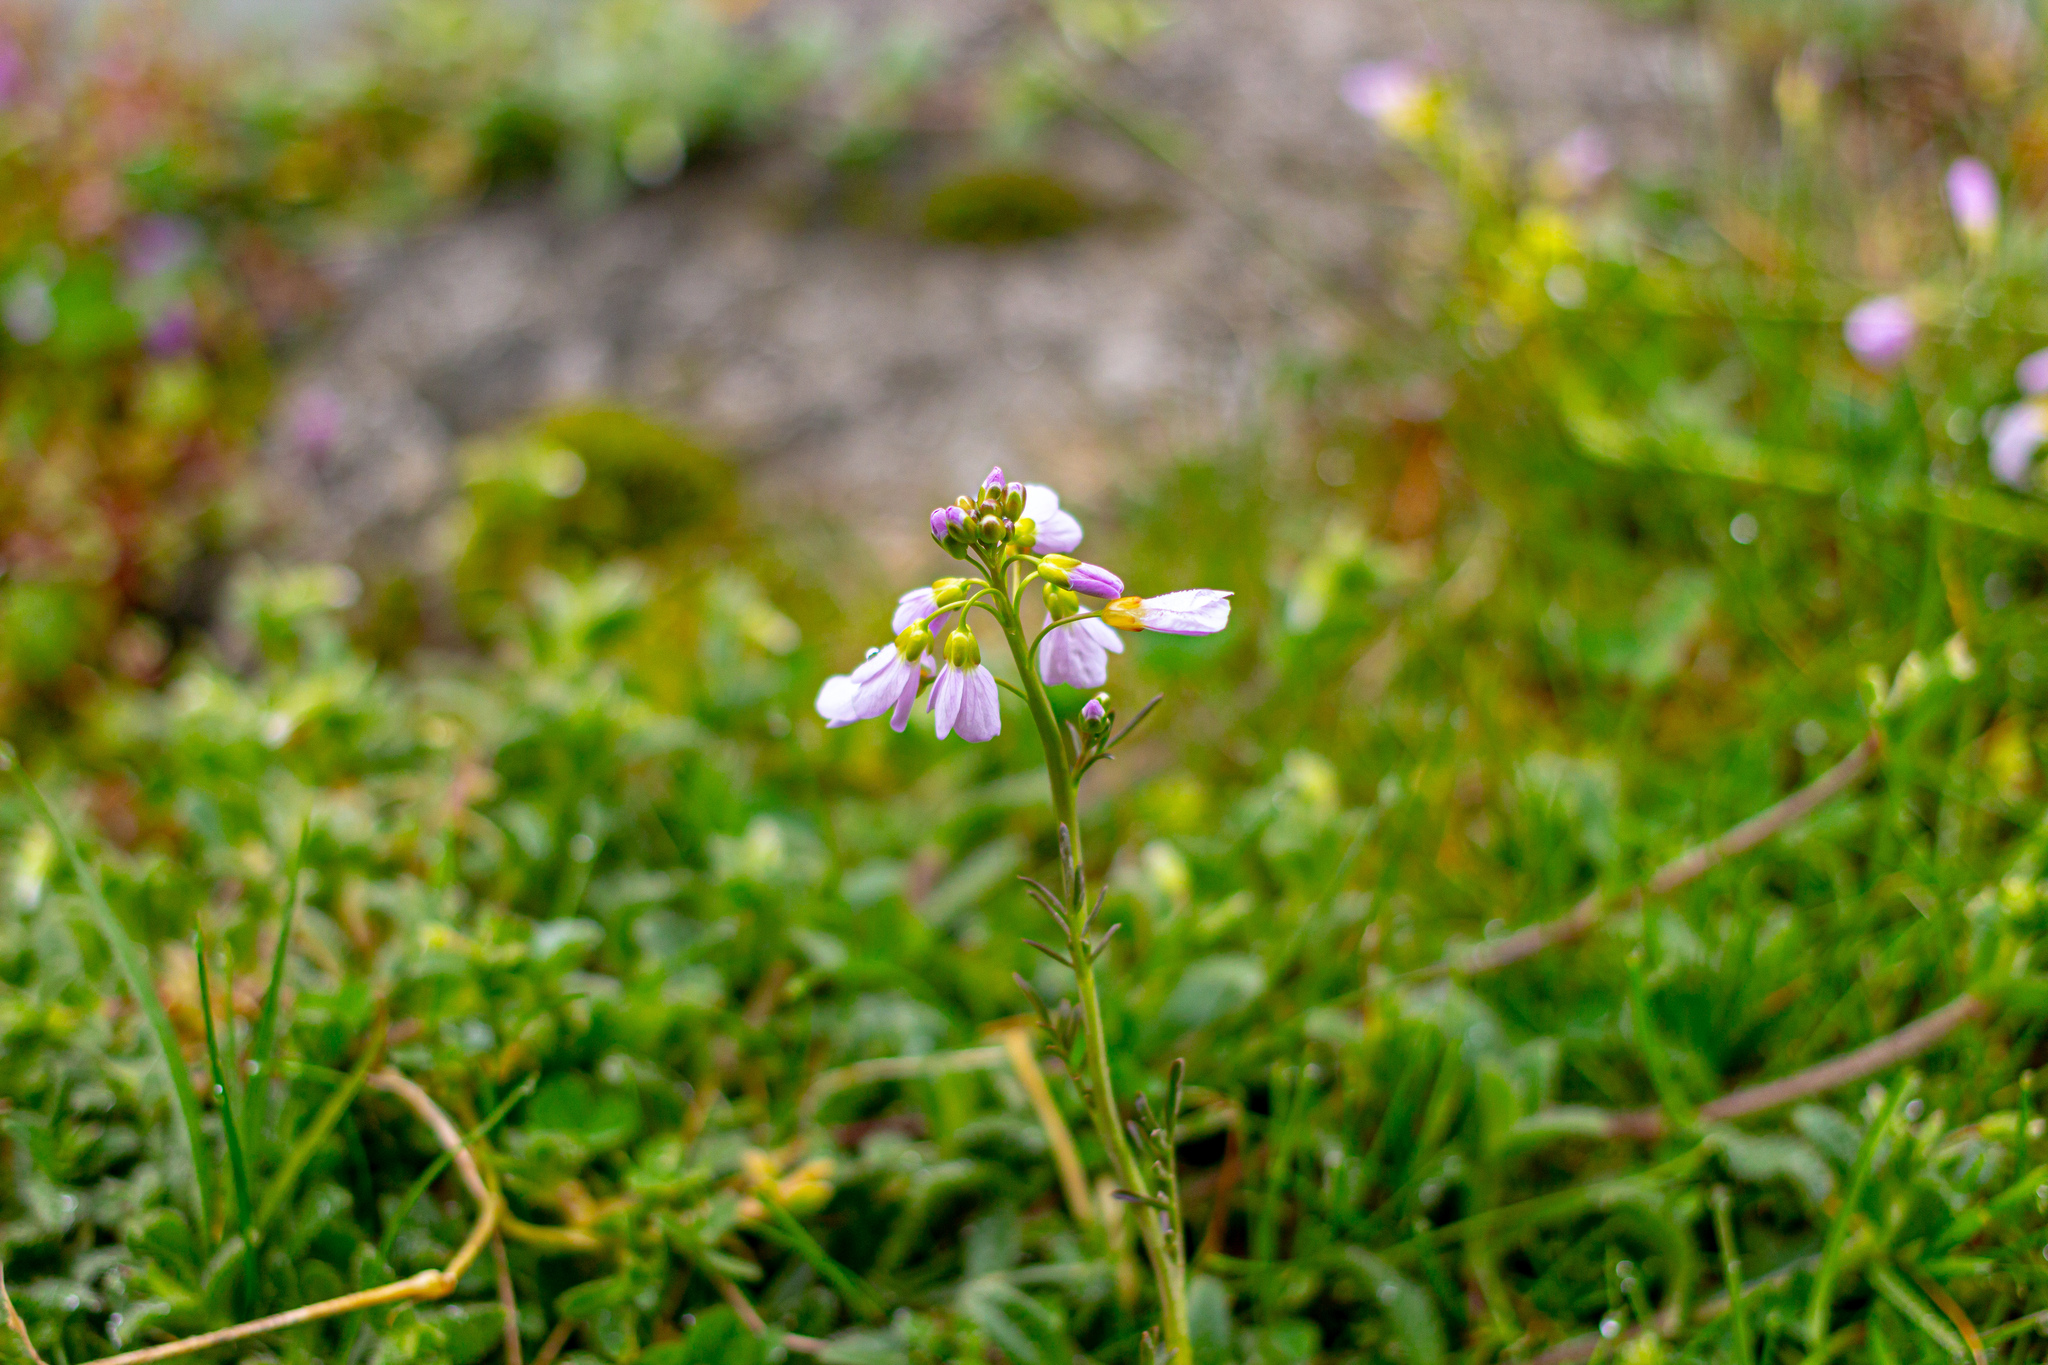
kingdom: Plantae
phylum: Tracheophyta
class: Magnoliopsida
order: Brassicales
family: Brassicaceae
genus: Cardamine
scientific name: Cardamine pratensis
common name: Cuckoo flower
